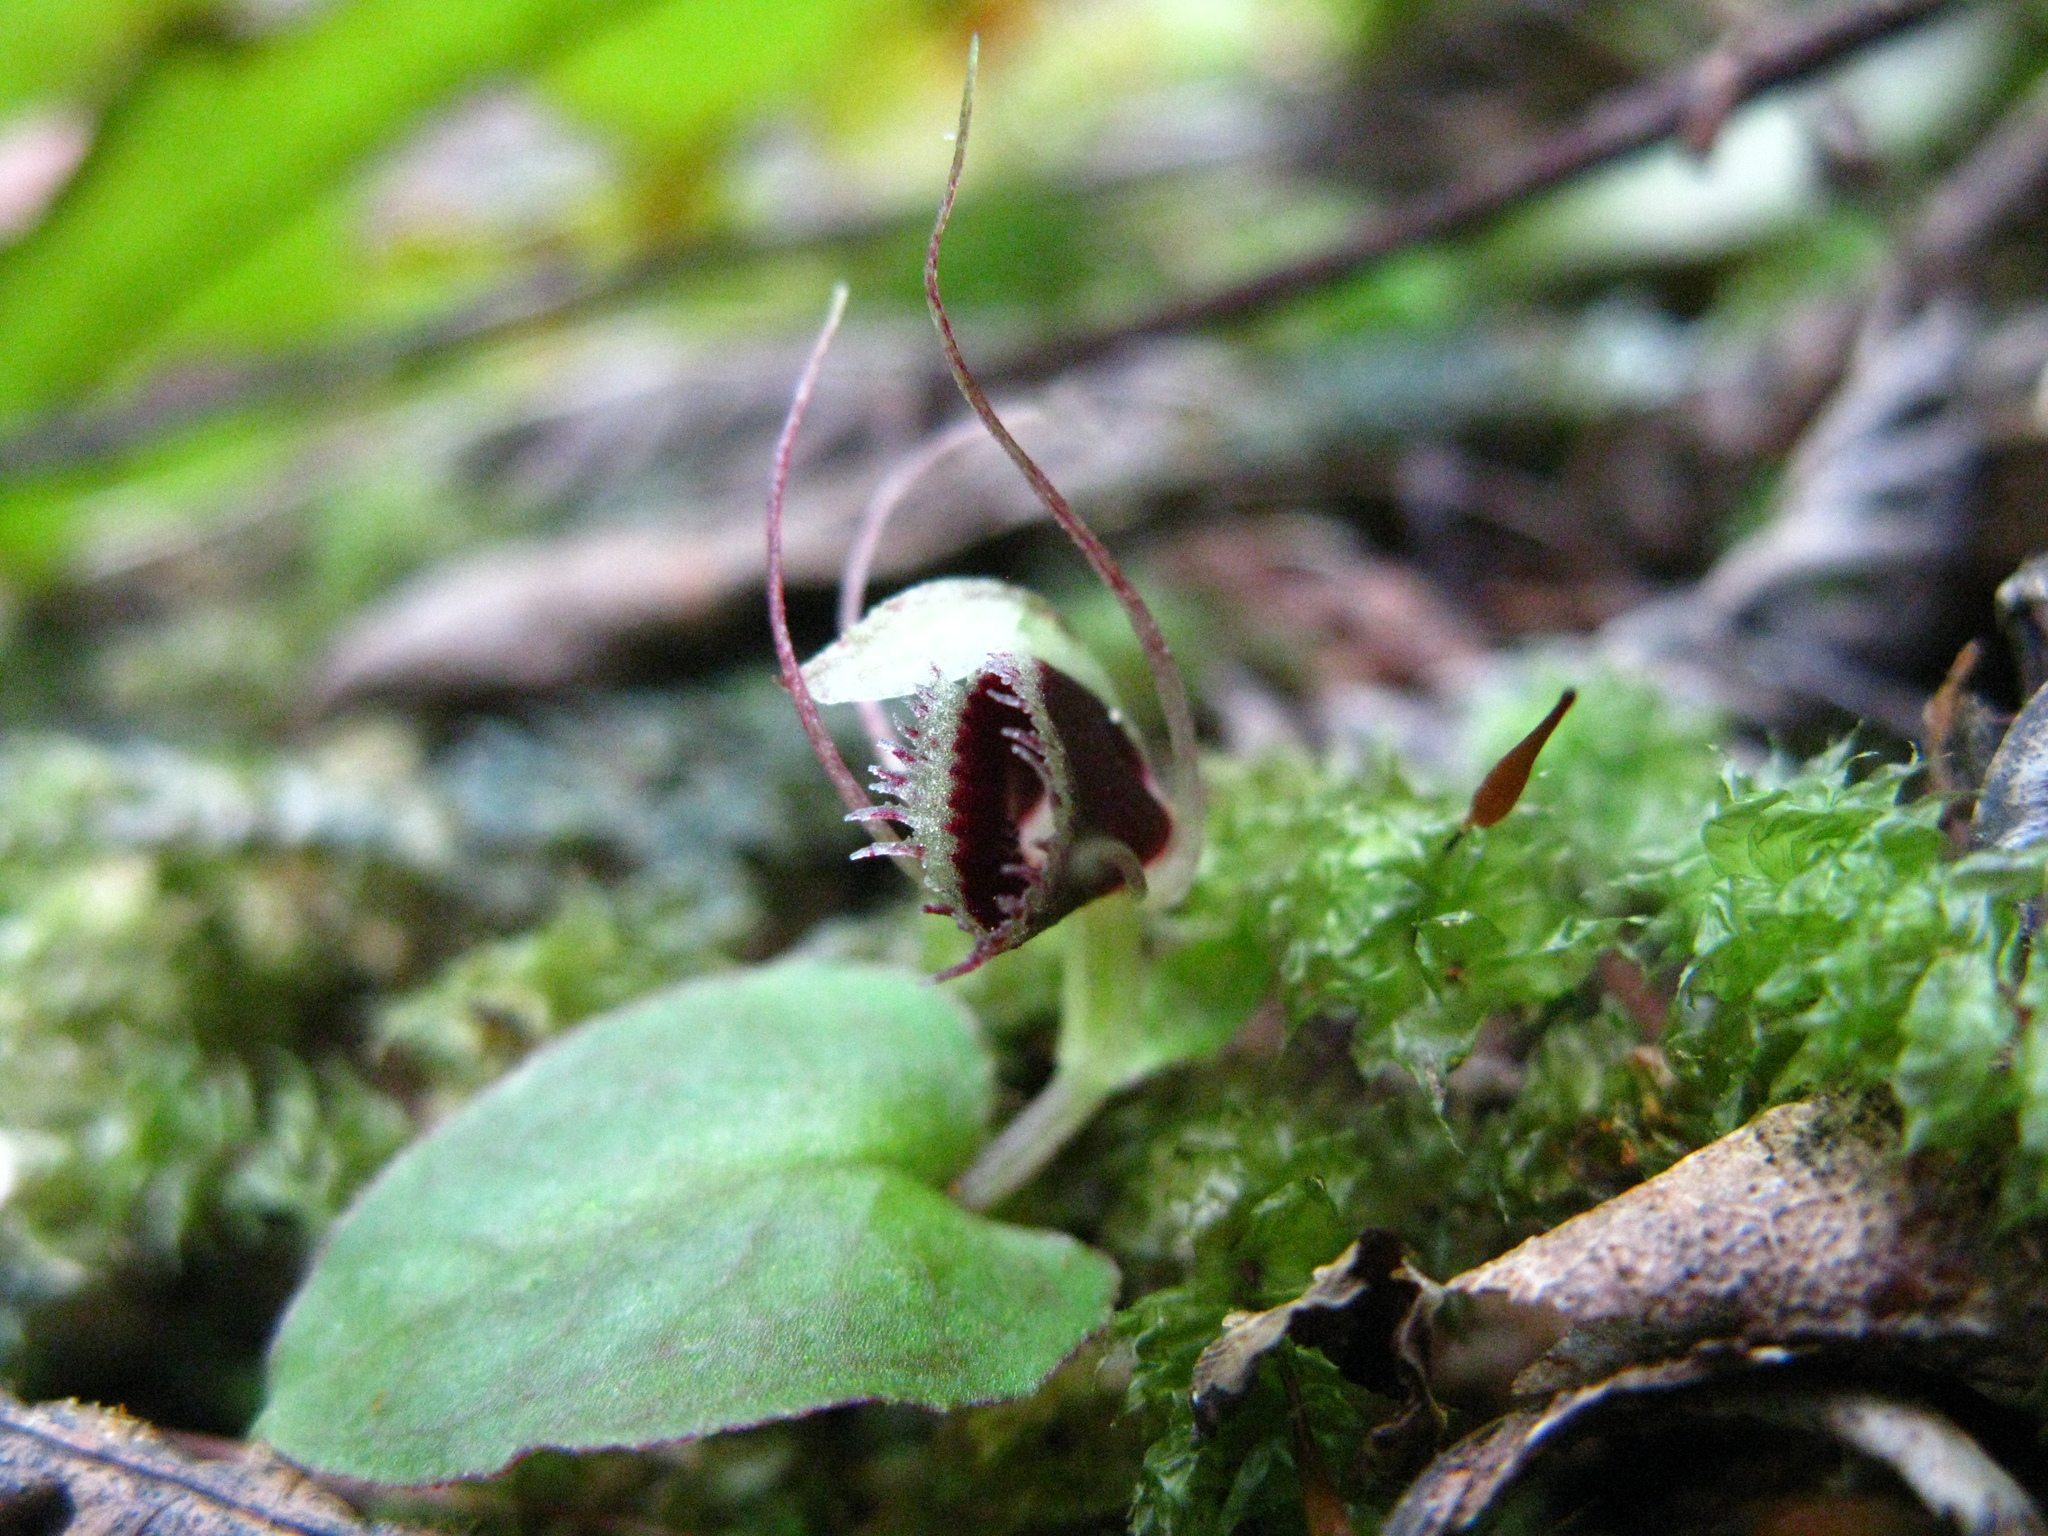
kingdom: Plantae
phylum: Tracheophyta
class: Liliopsida
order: Asparagales
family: Orchidaceae
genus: Corybas
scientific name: Corybas oblongus
